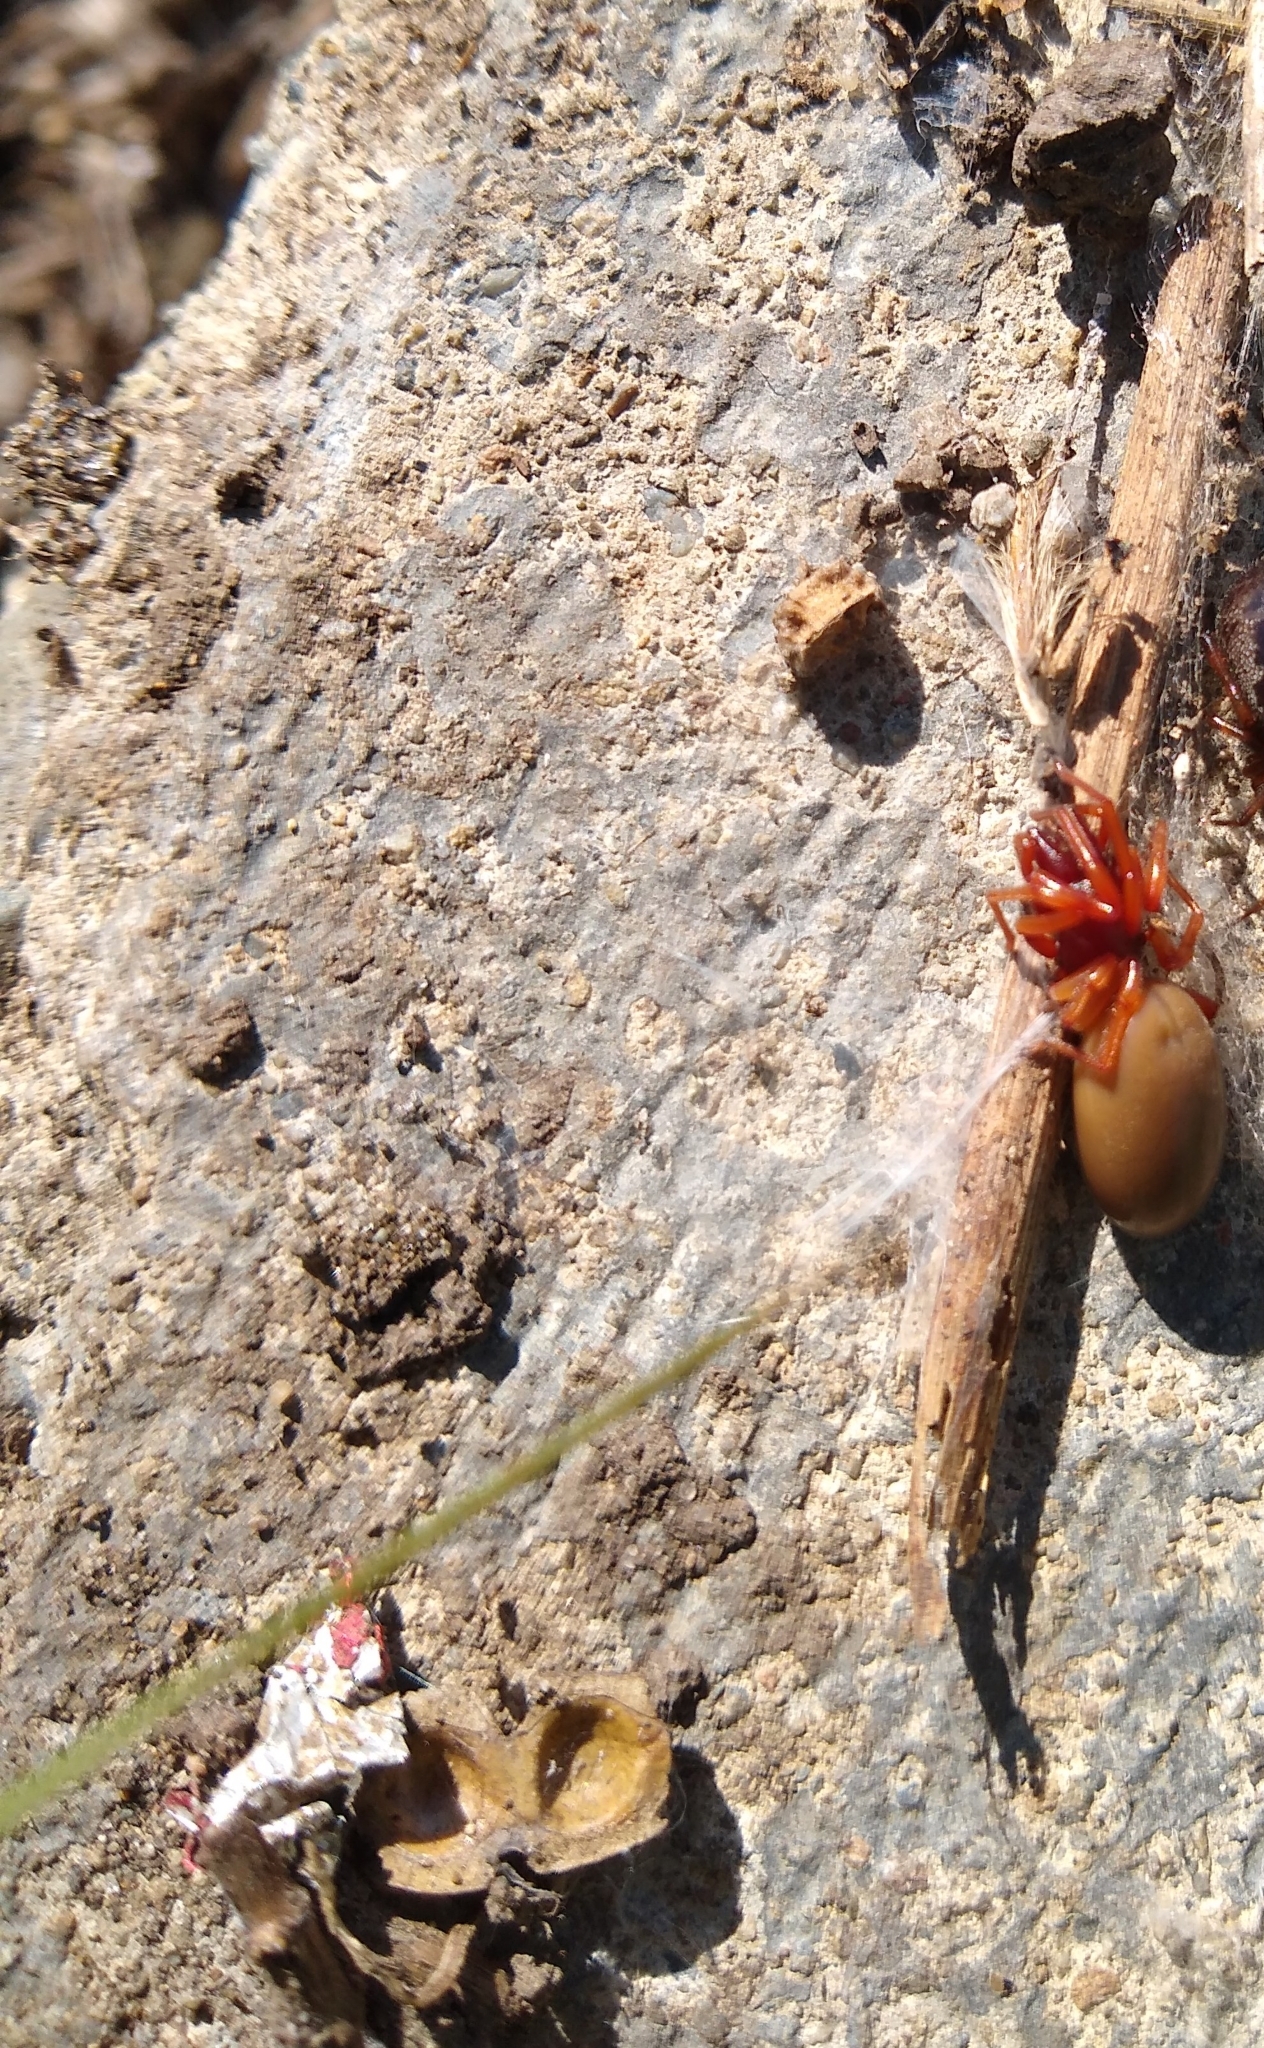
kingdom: Animalia
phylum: Arthropoda
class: Arachnida
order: Araneae
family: Dysderidae
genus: Dysdera
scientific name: Dysdera crocata
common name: Woodlouse spider
